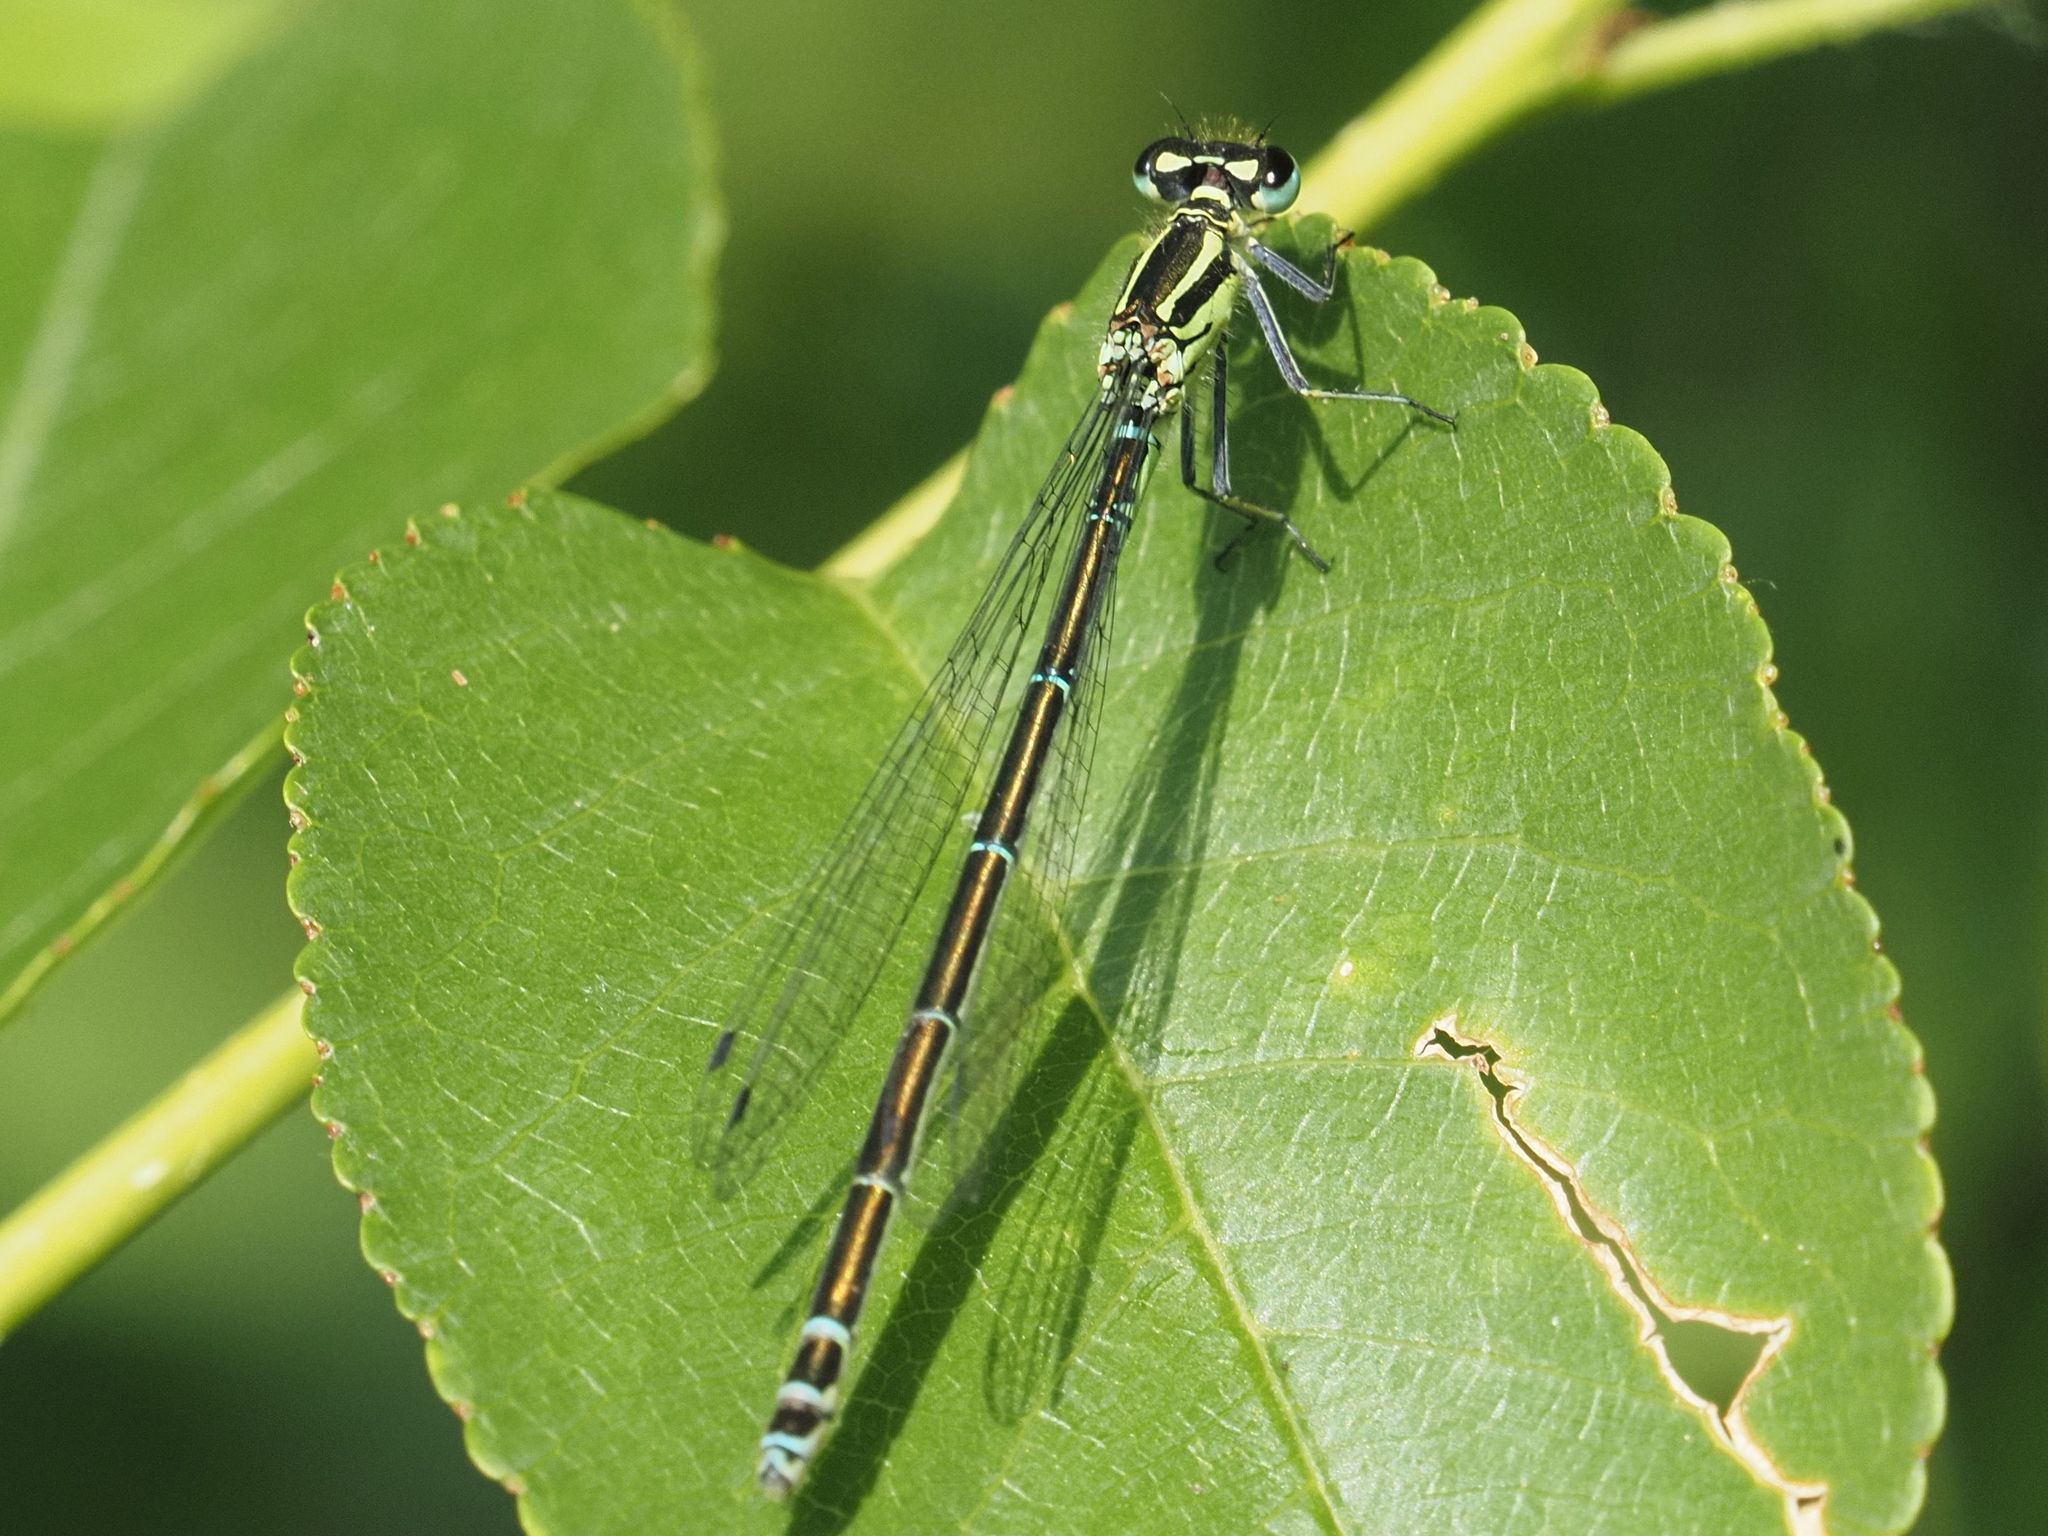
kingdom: Animalia
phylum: Arthropoda
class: Insecta
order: Odonata
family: Coenagrionidae
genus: Coenagrion
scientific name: Coenagrion puella
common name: Azure damselfly
